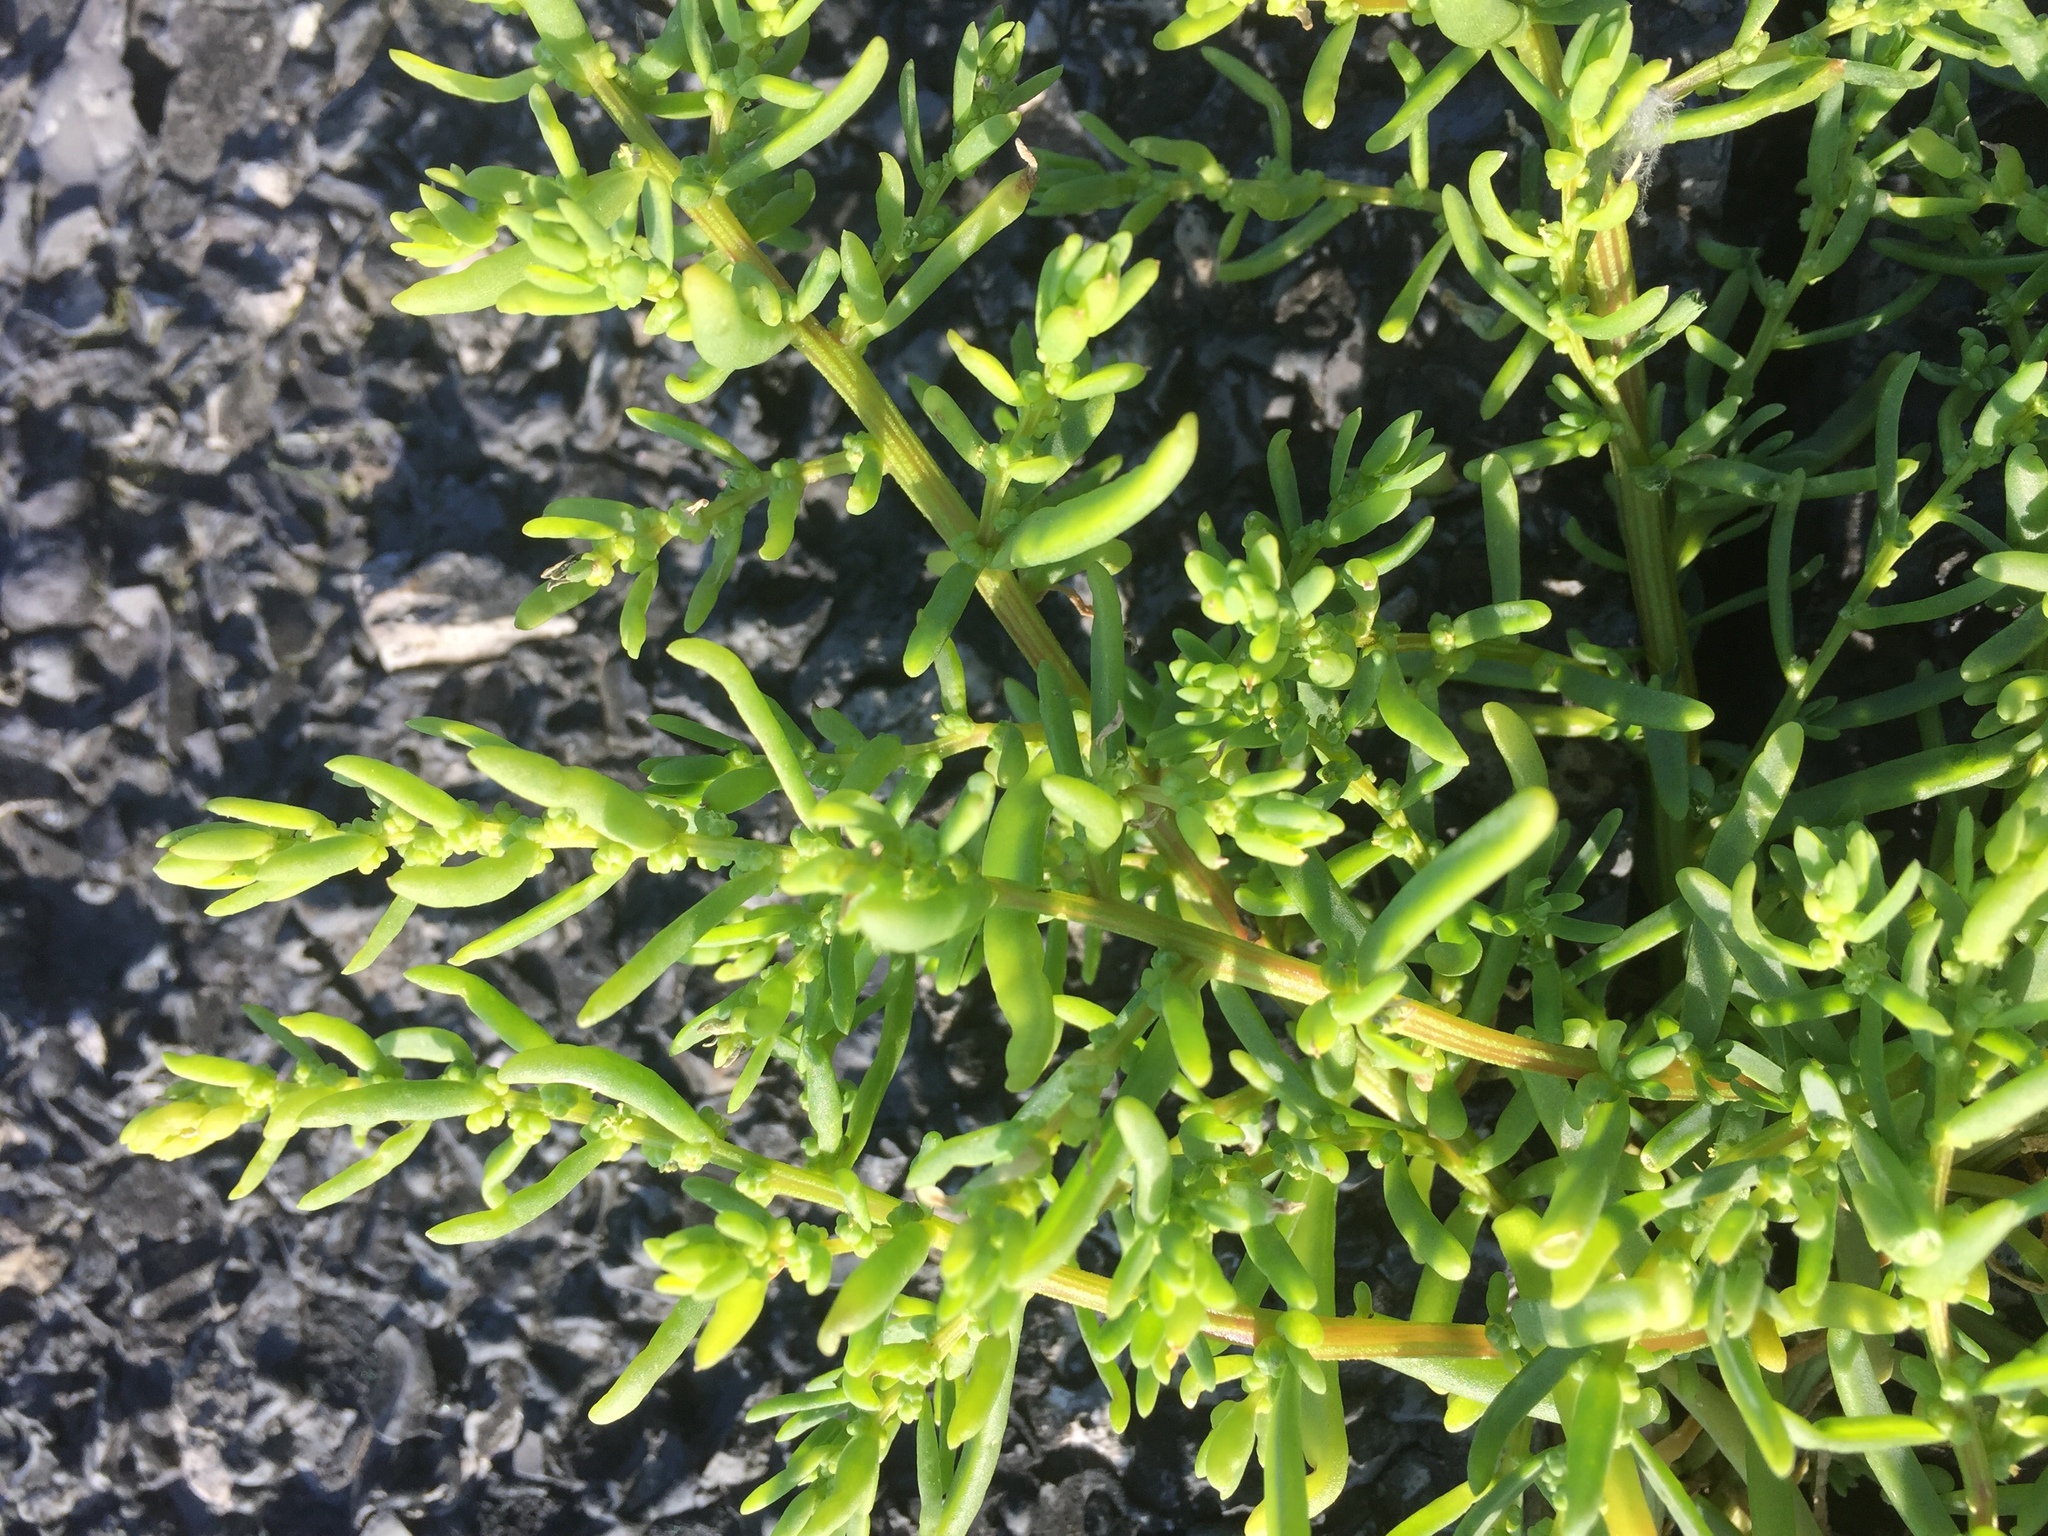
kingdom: Plantae
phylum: Tracheophyta
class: Magnoliopsida
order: Caryophyllales
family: Amaranthaceae
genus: Suaeda
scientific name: Suaeda maritima
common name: Annual sea-blite
